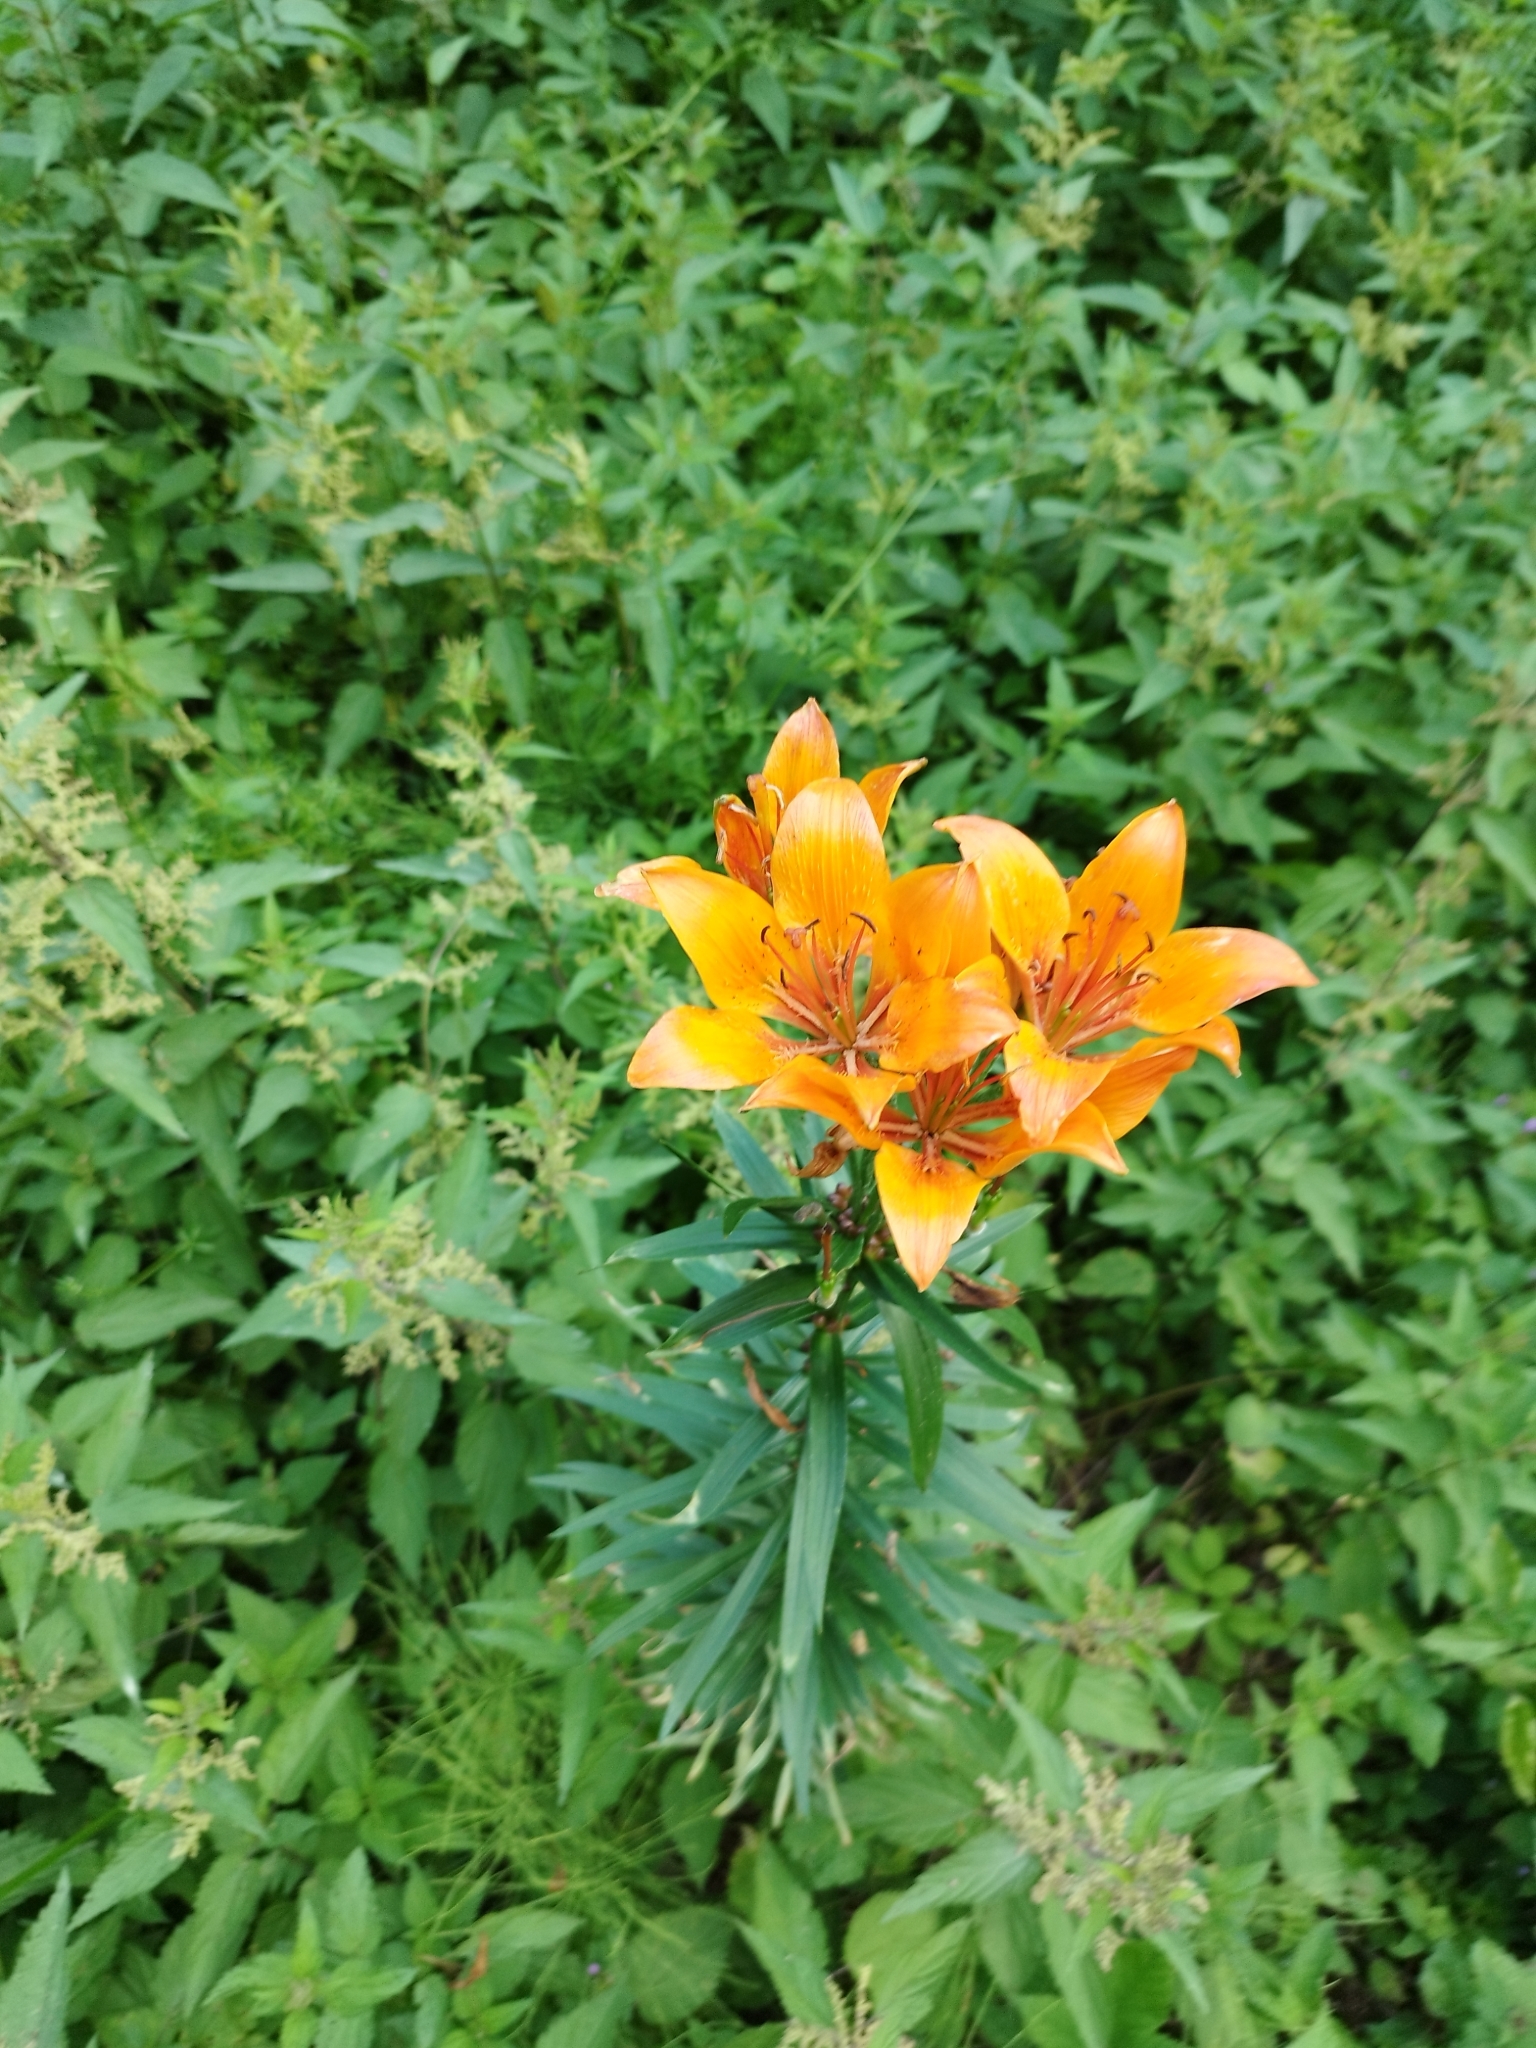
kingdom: Plantae
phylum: Tracheophyta
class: Liliopsida
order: Liliales
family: Liliaceae
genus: Lilium
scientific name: Lilium bulbiferum
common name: Orange lily
